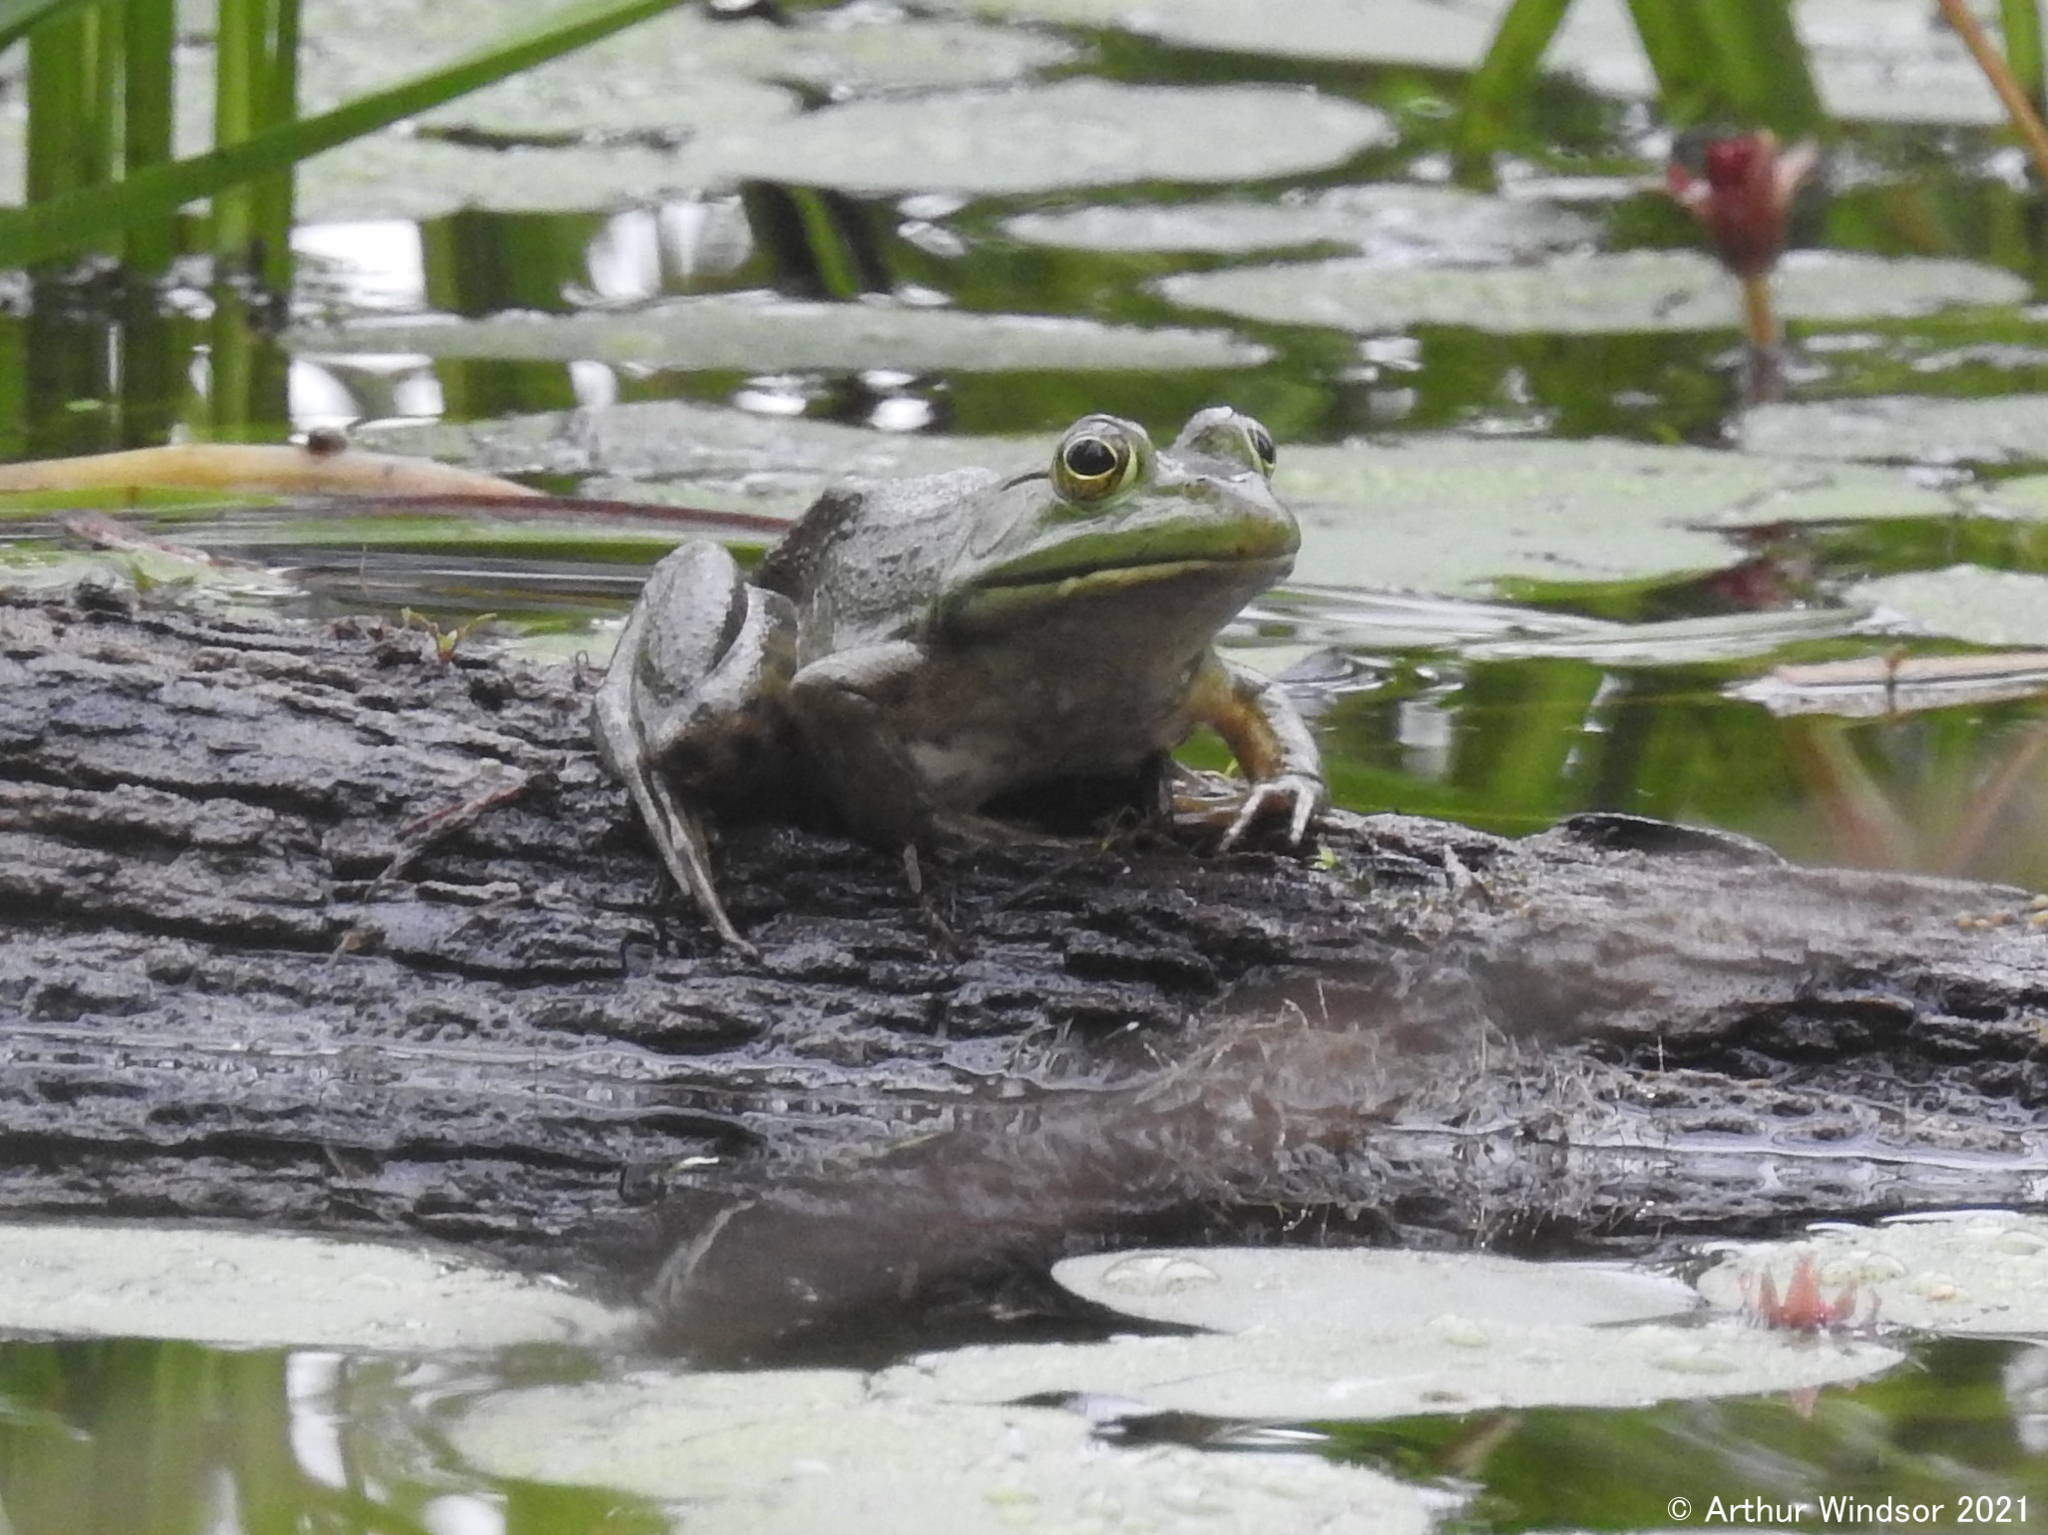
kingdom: Animalia
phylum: Chordata
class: Amphibia
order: Anura
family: Ranidae
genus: Lithobates
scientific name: Lithobates catesbeianus
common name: American bullfrog
